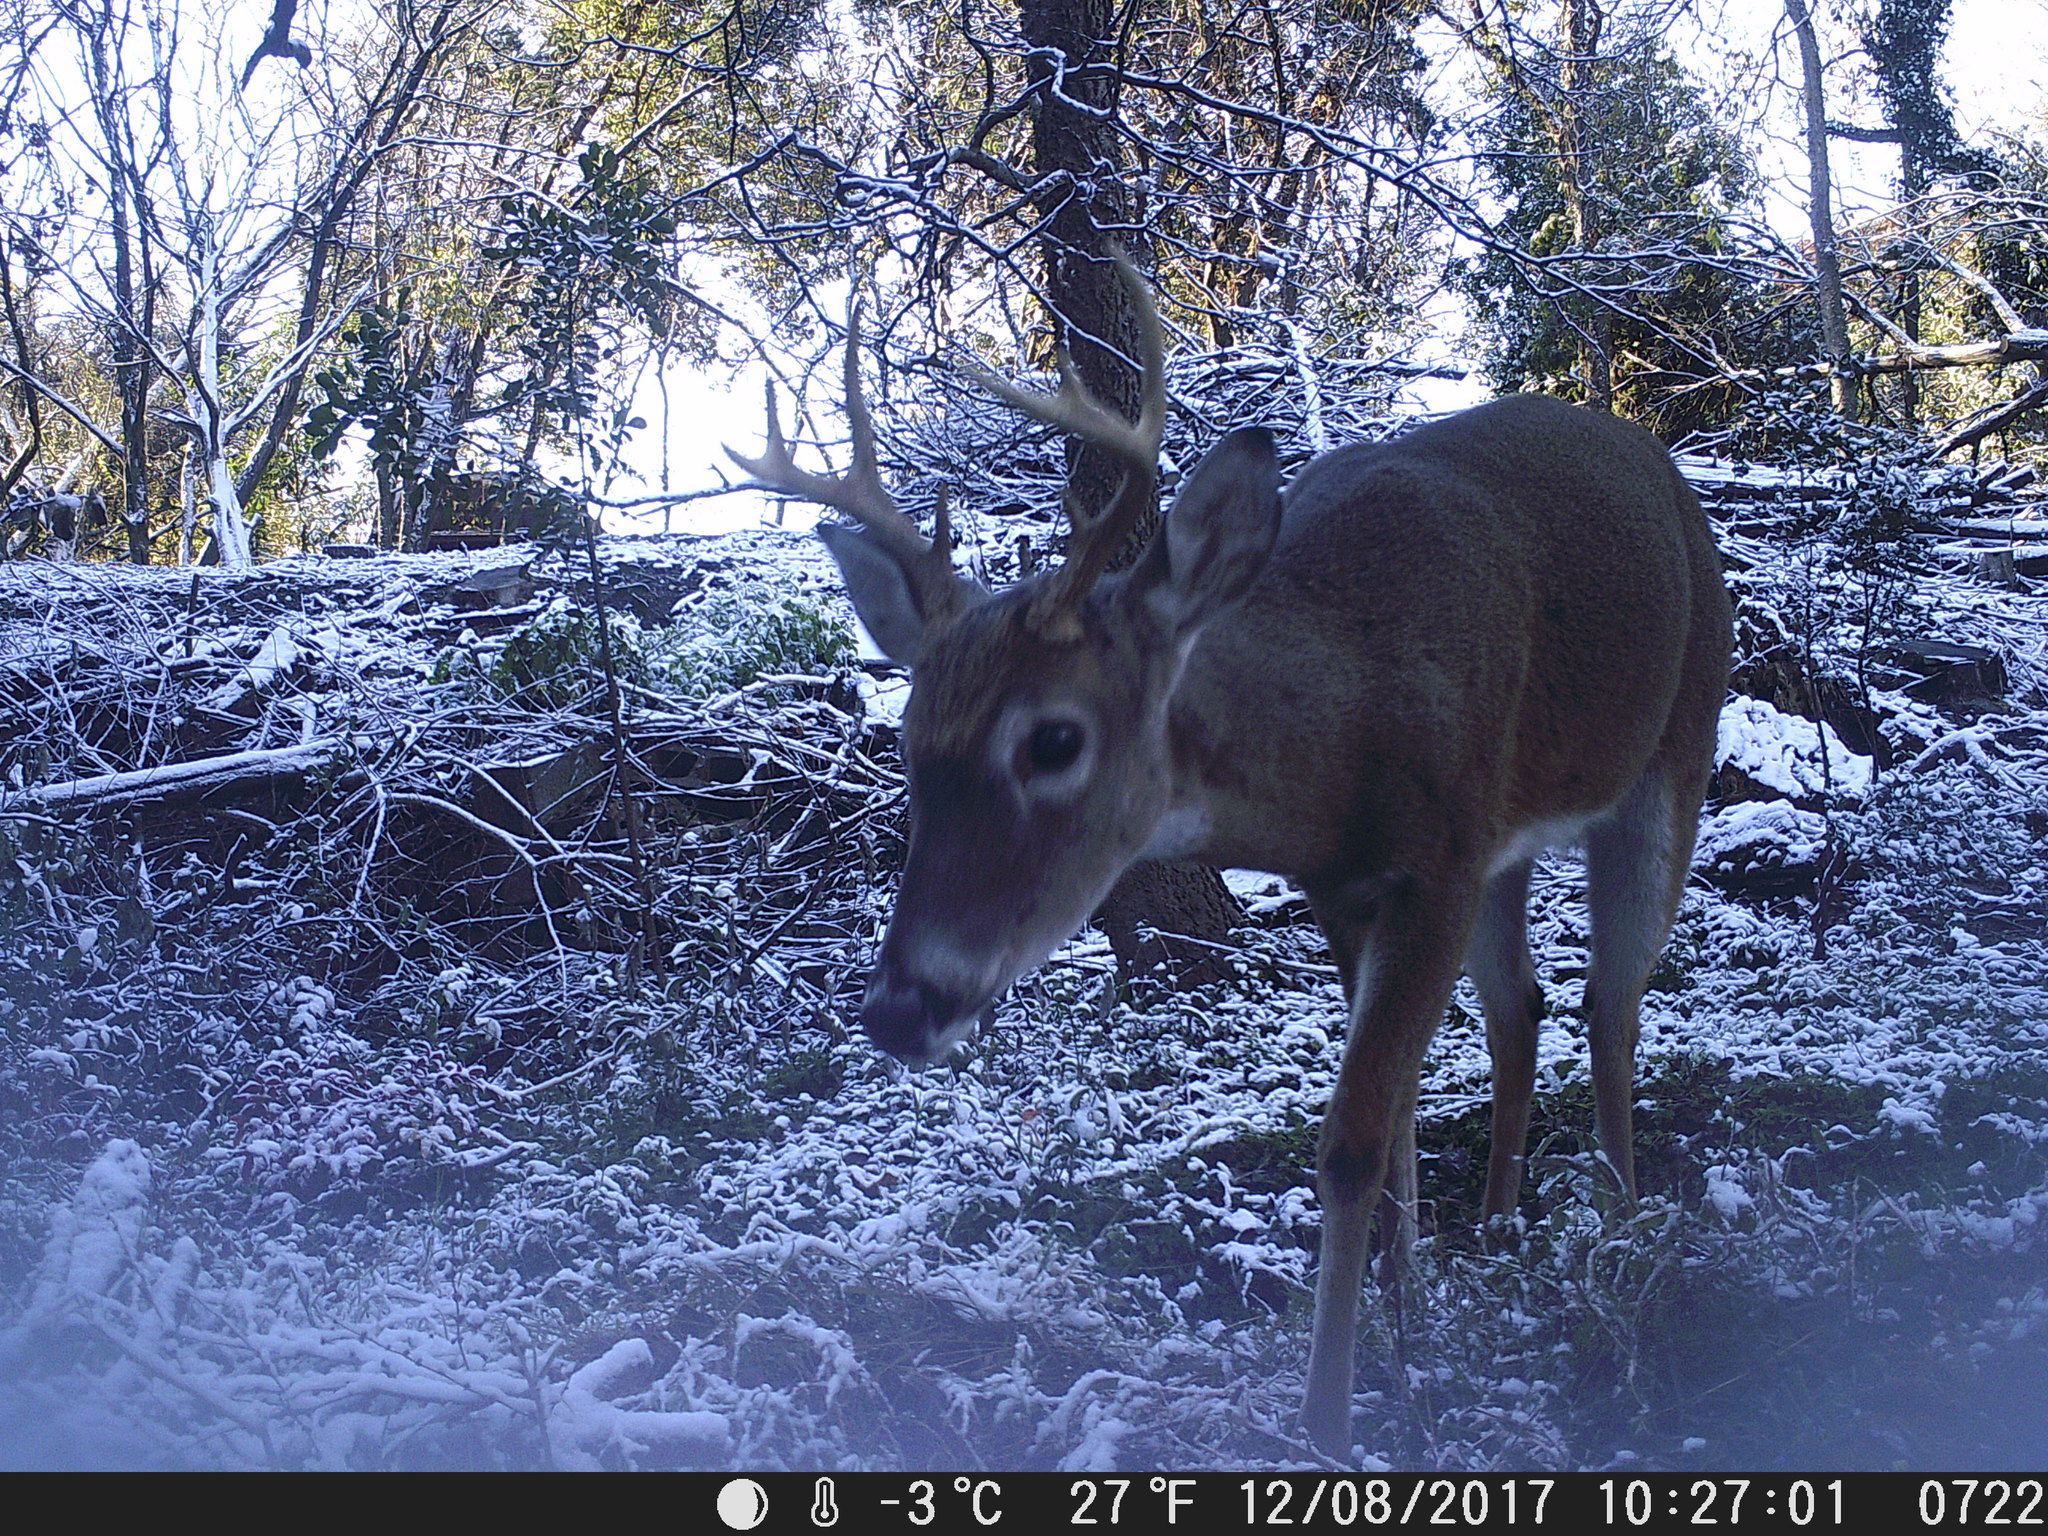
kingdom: Animalia
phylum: Chordata
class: Mammalia
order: Artiodactyla
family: Cervidae
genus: Odocoileus
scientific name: Odocoileus virginianus
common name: White-tailed deer
